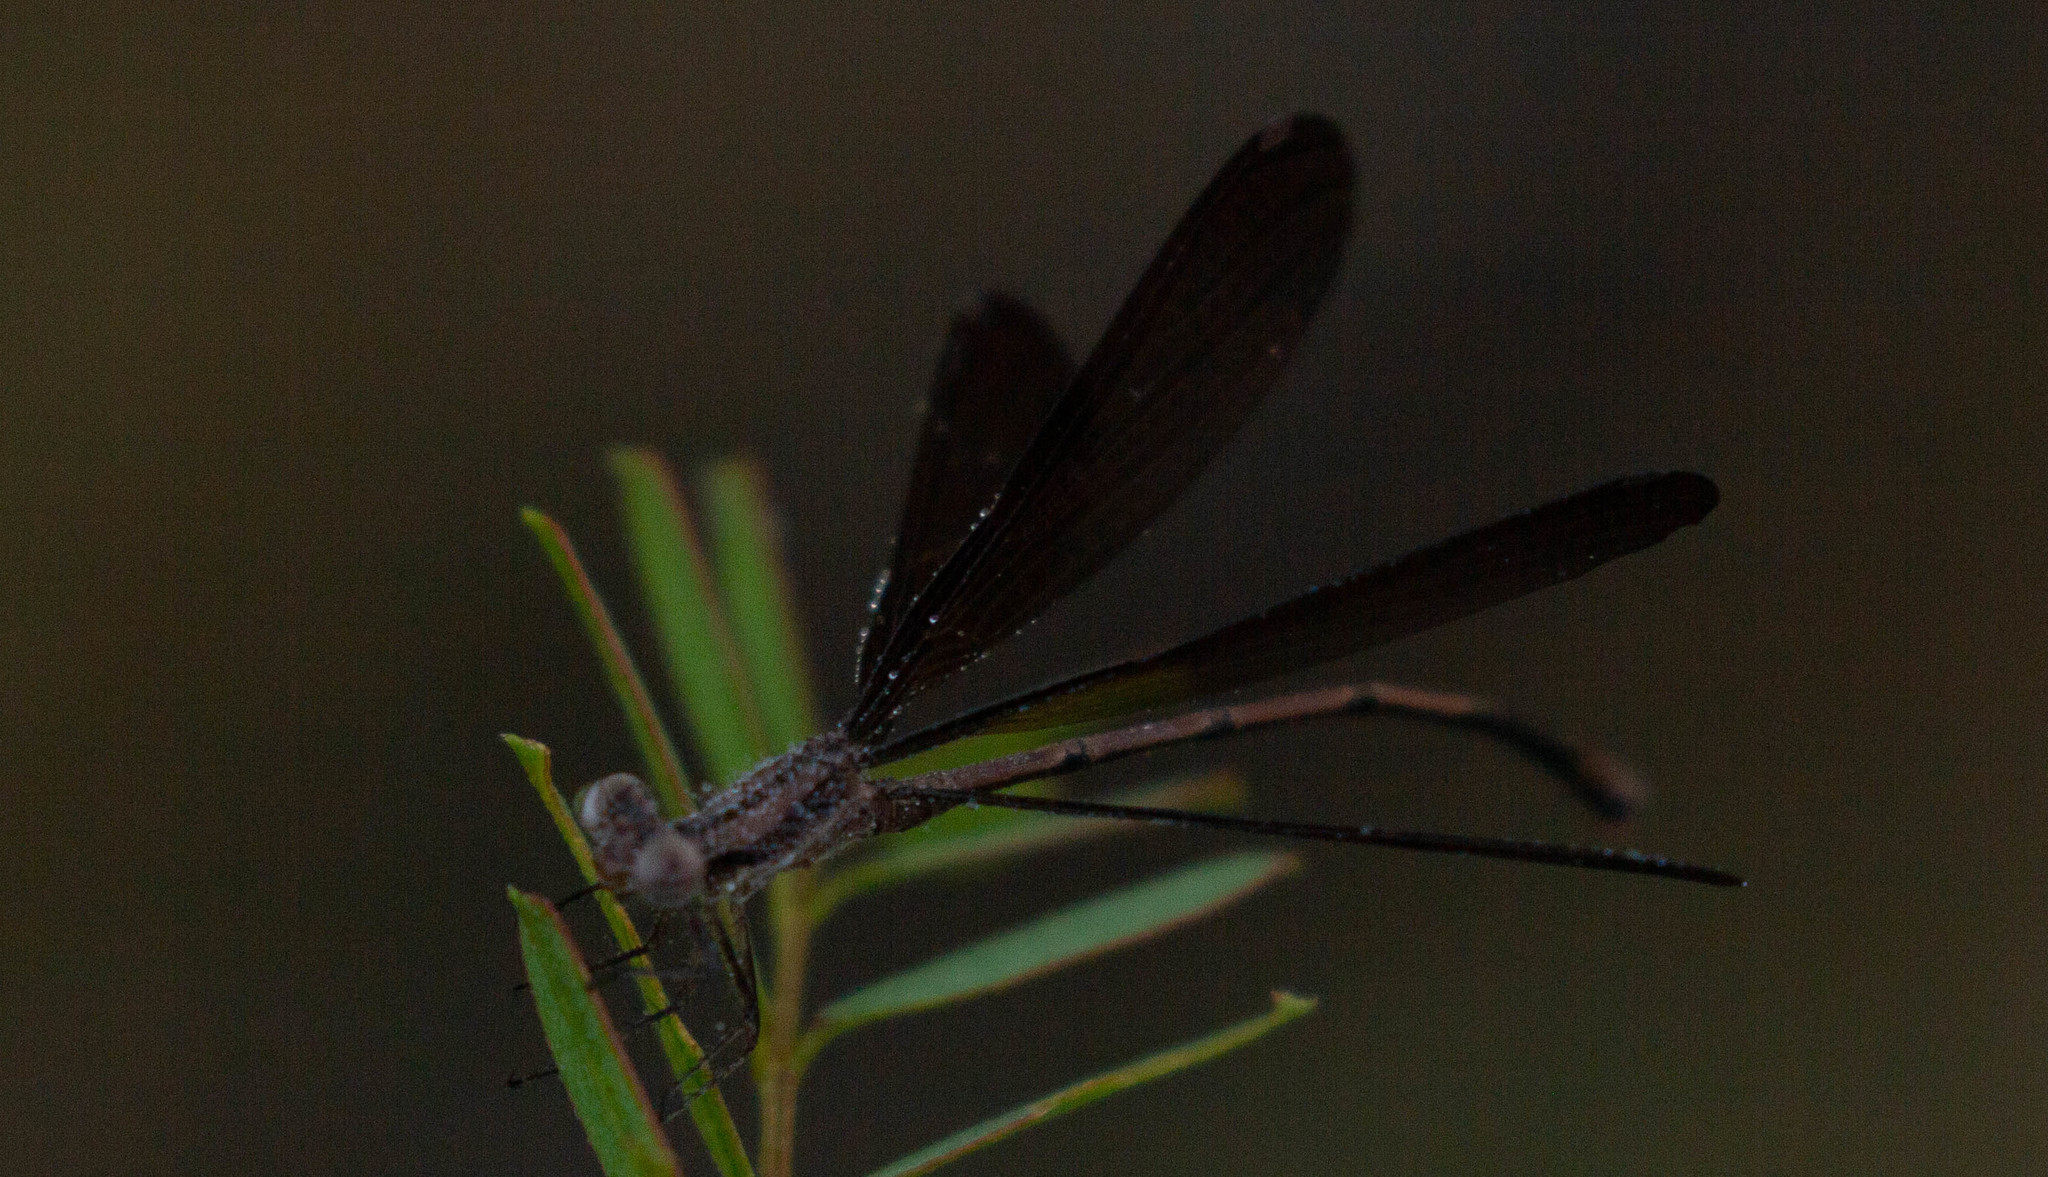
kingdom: Animalia
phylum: Arthropoda
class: Insecta
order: Odonata
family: Coenagrionidae
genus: Argia
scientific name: Argia fumipennis
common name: Variable dancer
